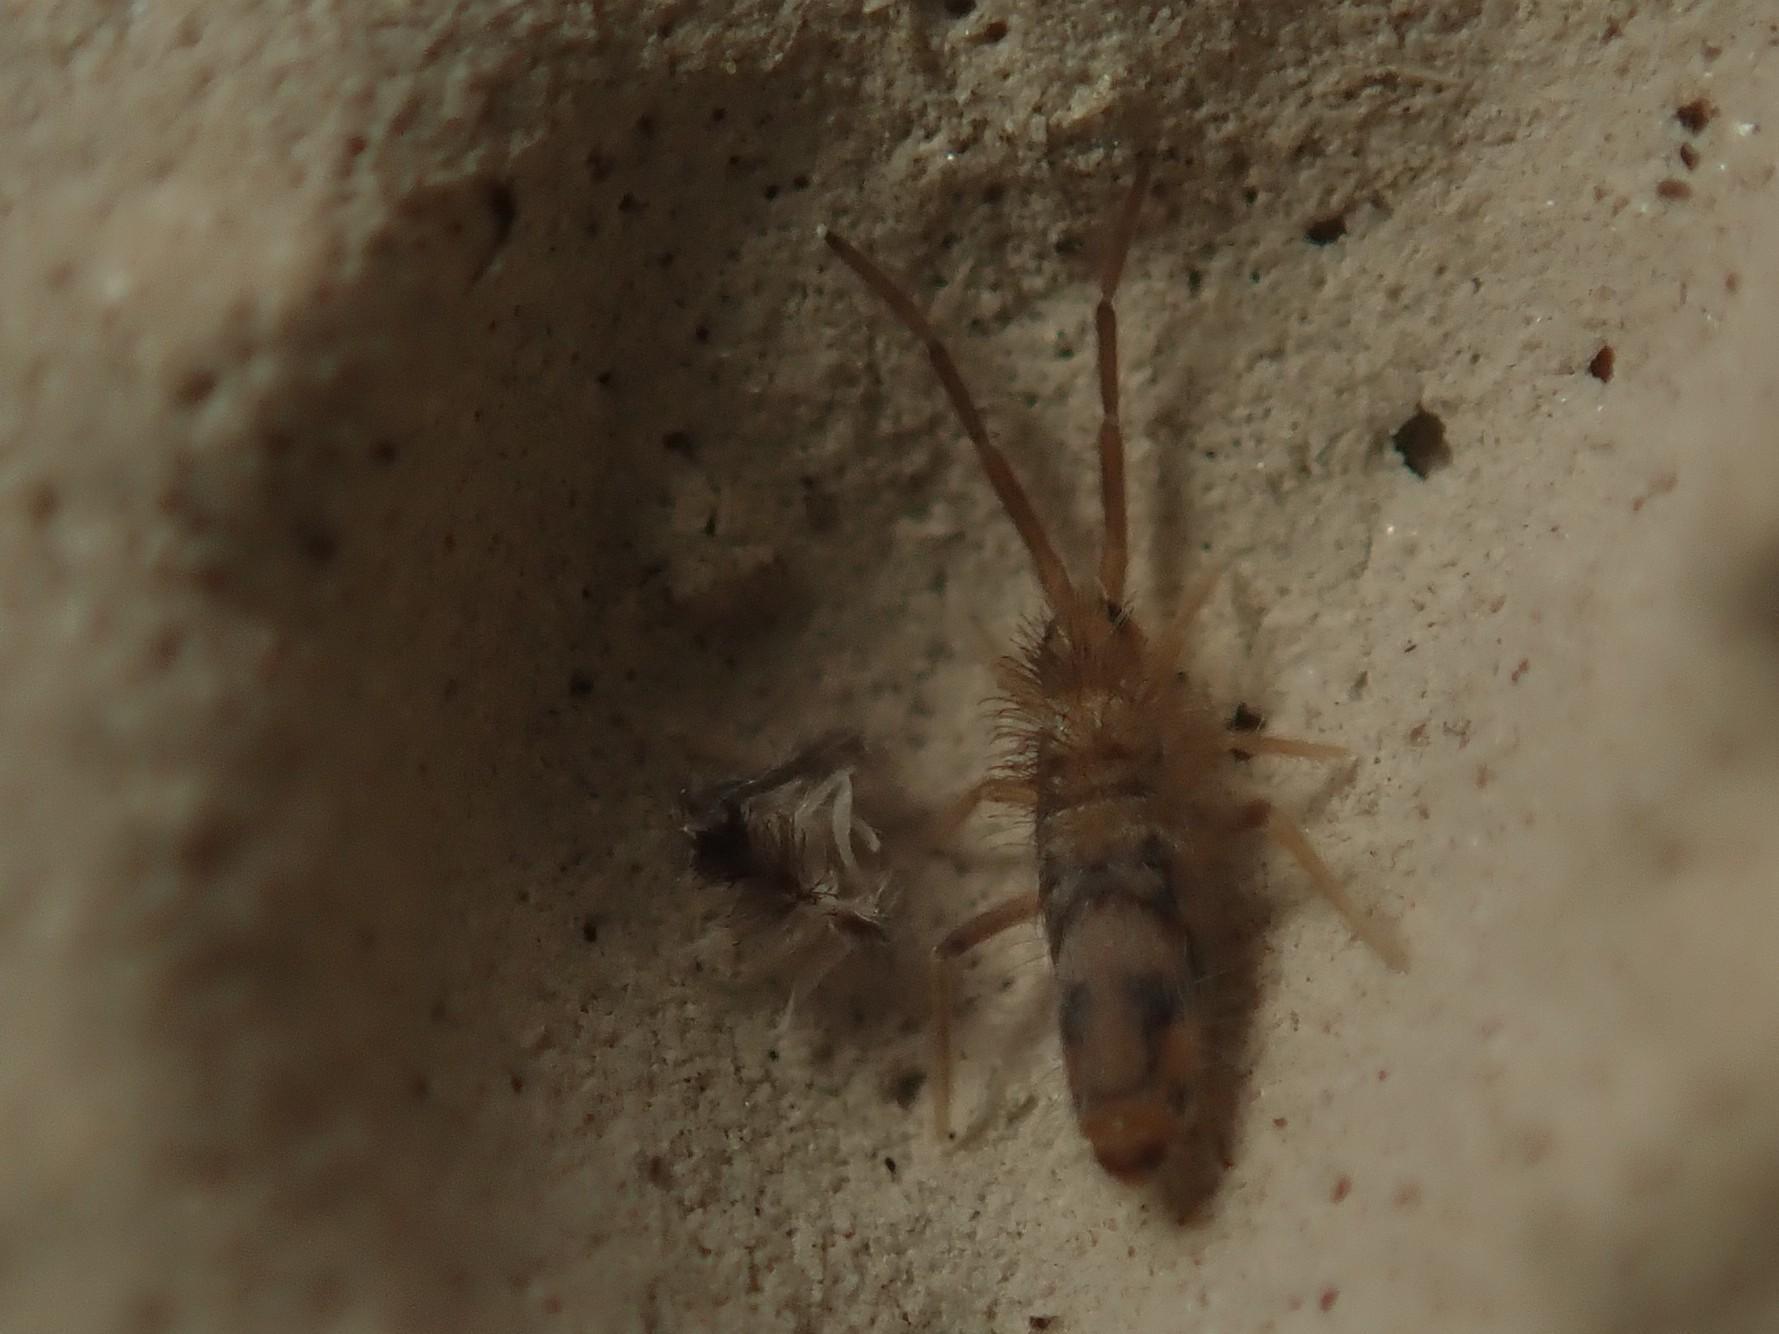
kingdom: Animalia
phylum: Arthropoda
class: Collembola
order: Entomobryomorpha
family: Entomobryidae
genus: Entomobrya
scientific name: Entomobrya nivalis
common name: Cosmopolitan springtail
